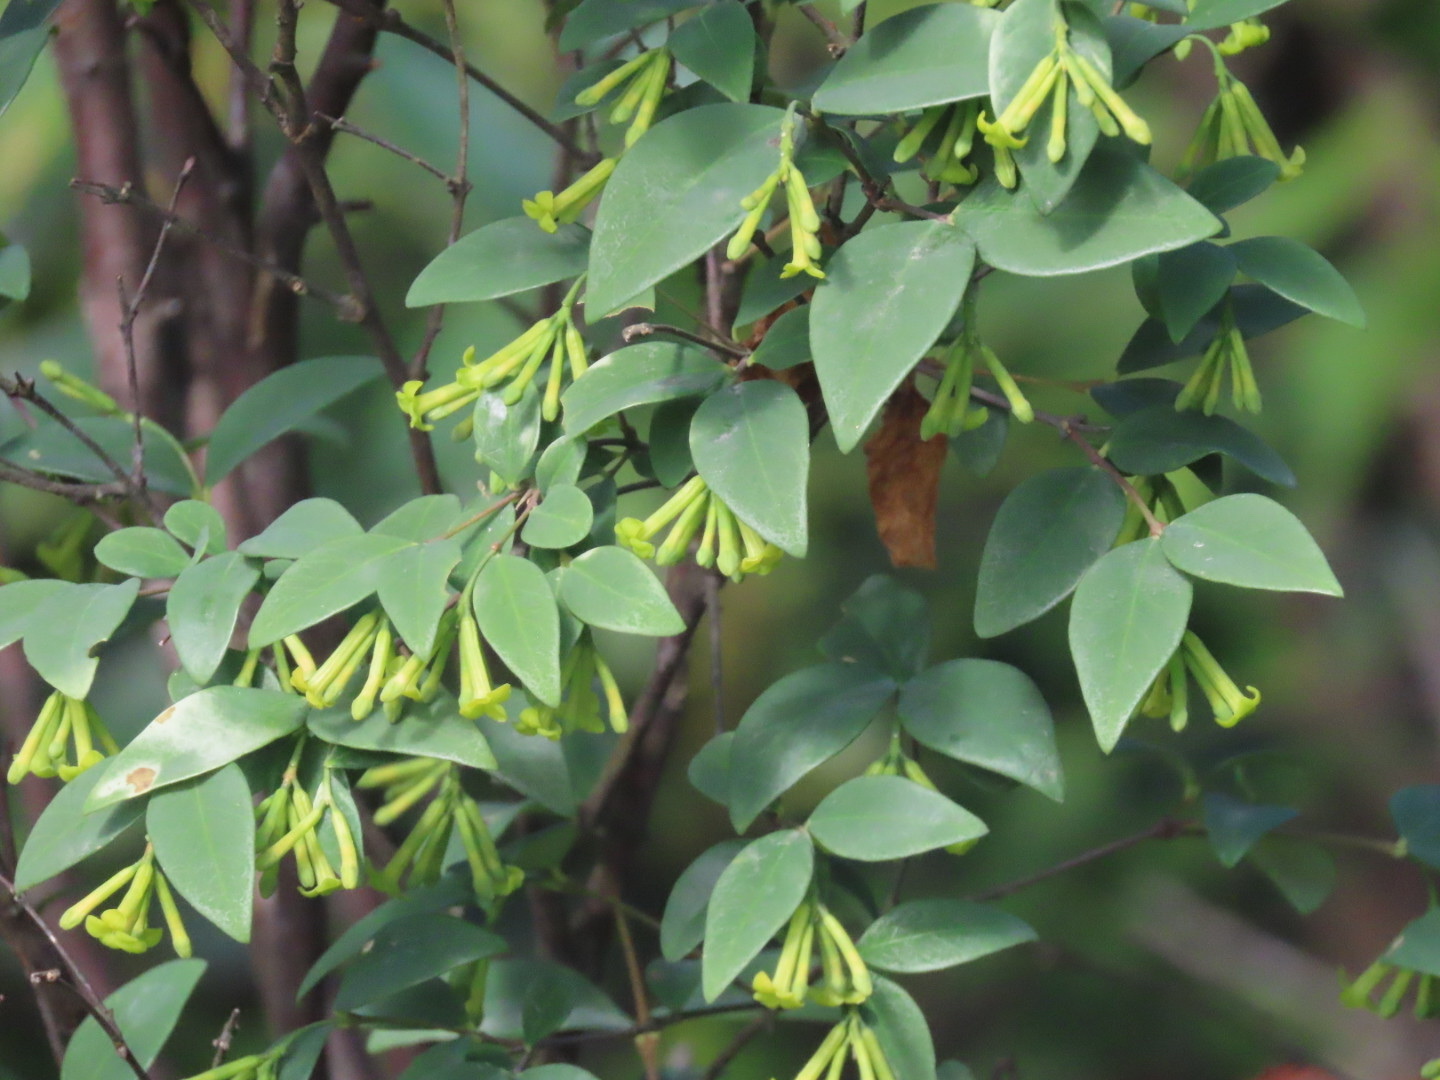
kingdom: Plantae
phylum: Tracheophyta
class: Magnoliopsida
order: Malvales
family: Thymelaeaceae
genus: Wikstroemia
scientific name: Wikstroemia nutans
